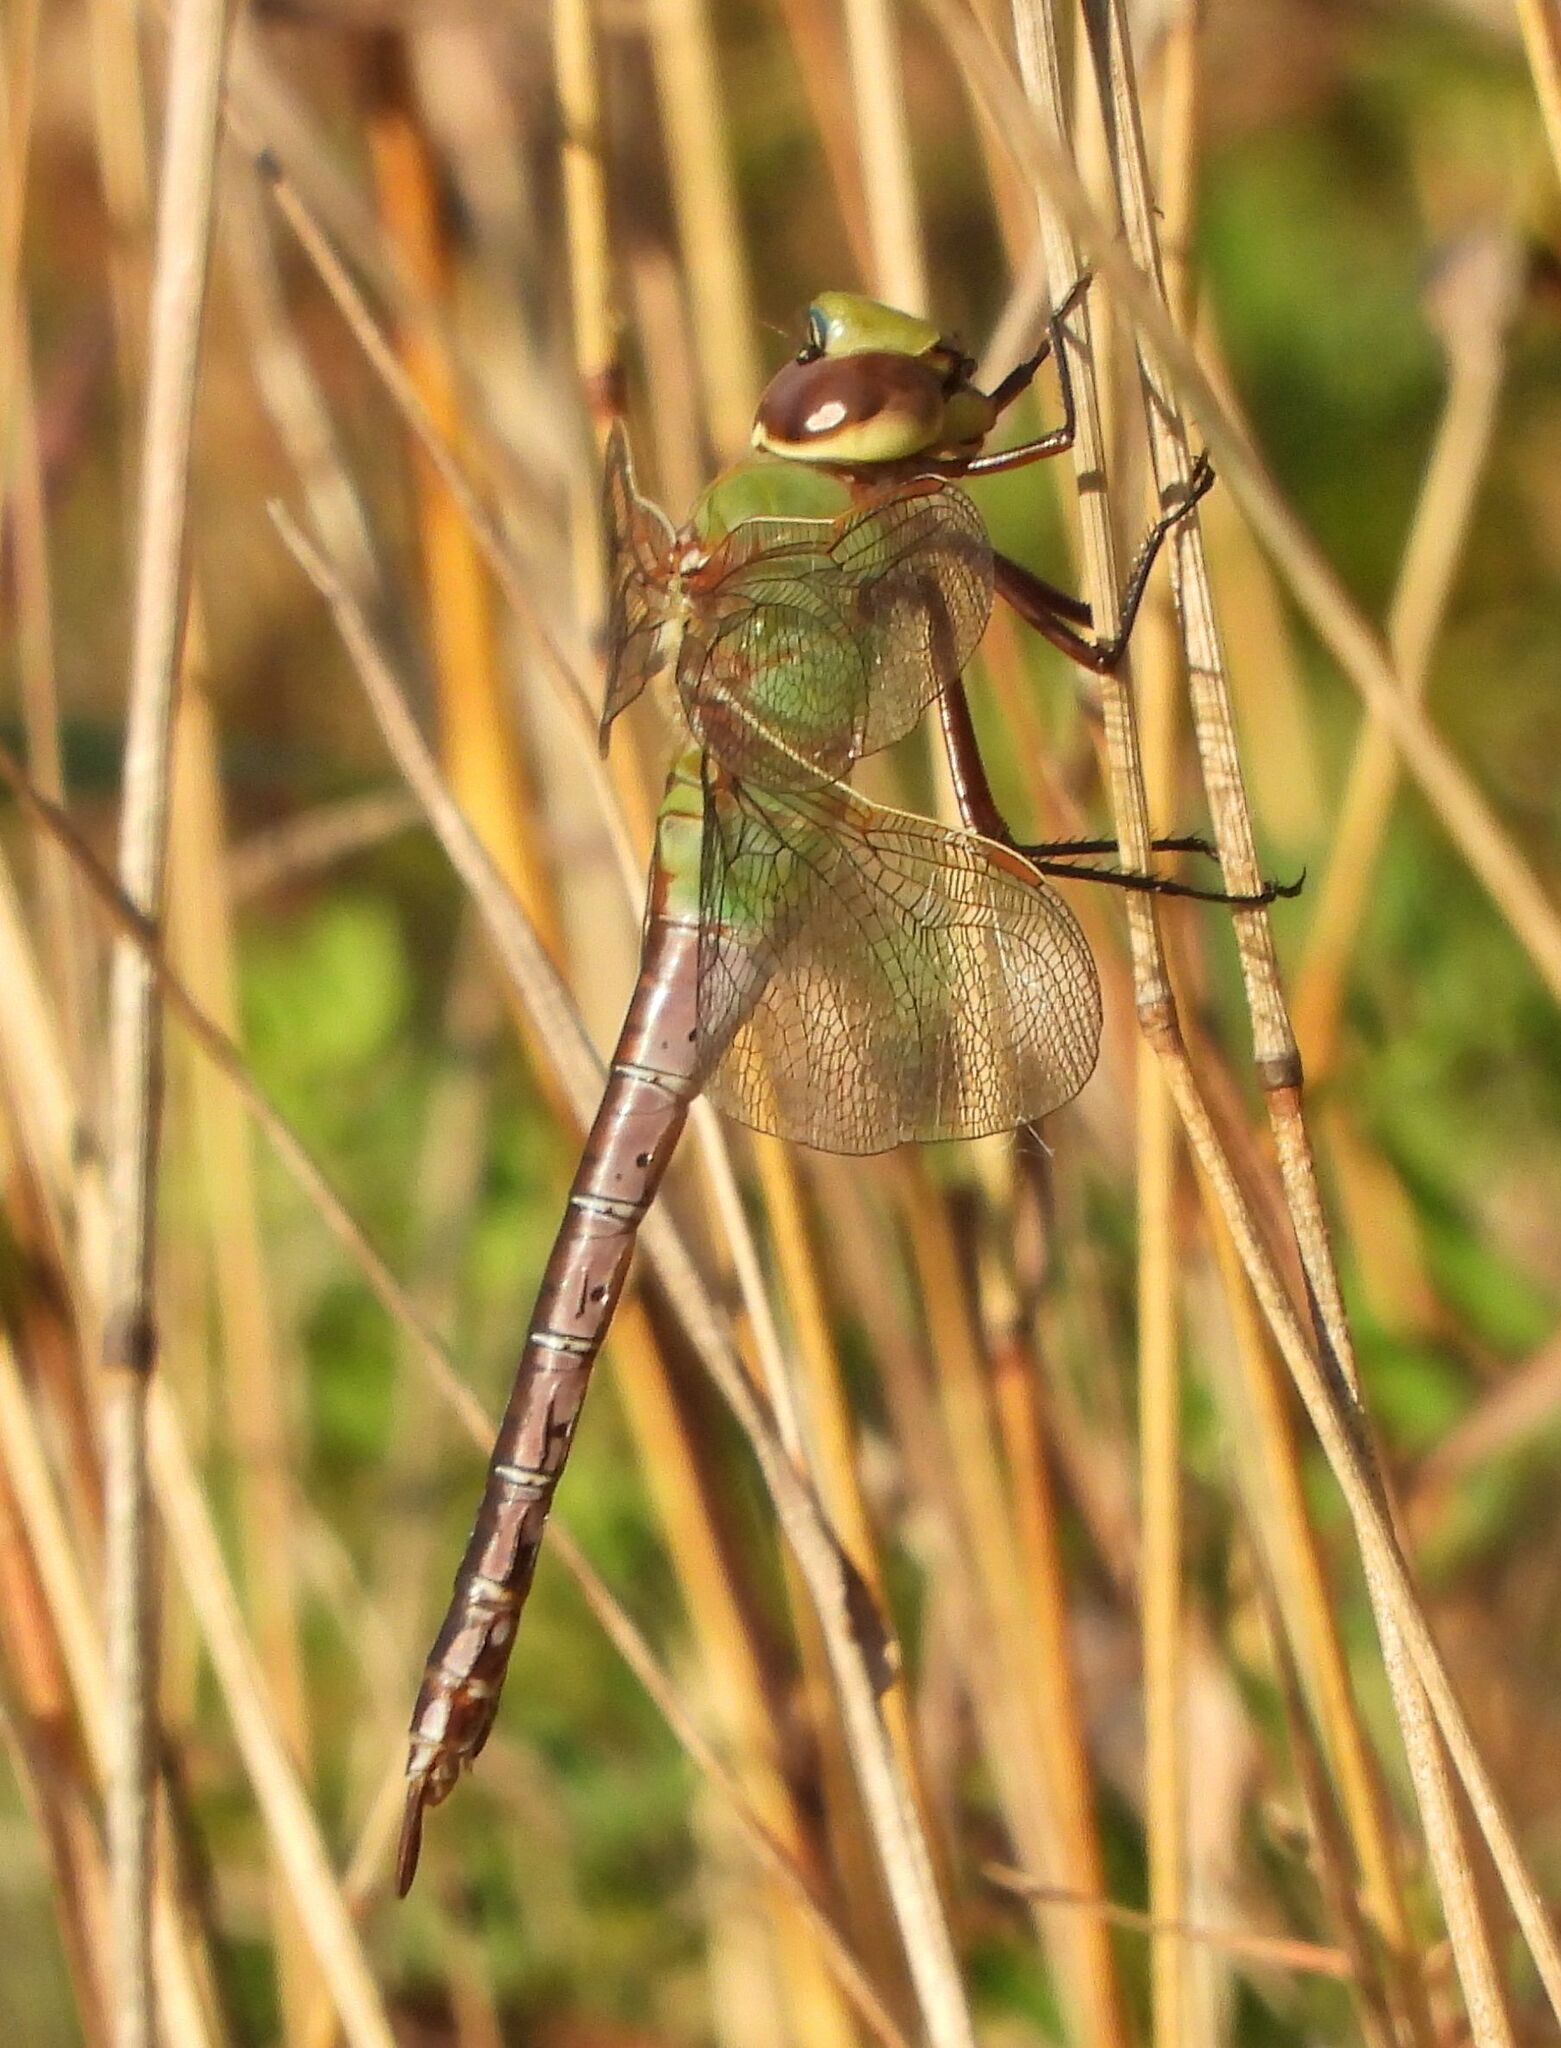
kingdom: Animalia
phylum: Arthropoda
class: Insecta
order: Odonata
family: Aeshnidae
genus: Anax
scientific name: Anax junius
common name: Common green darner
